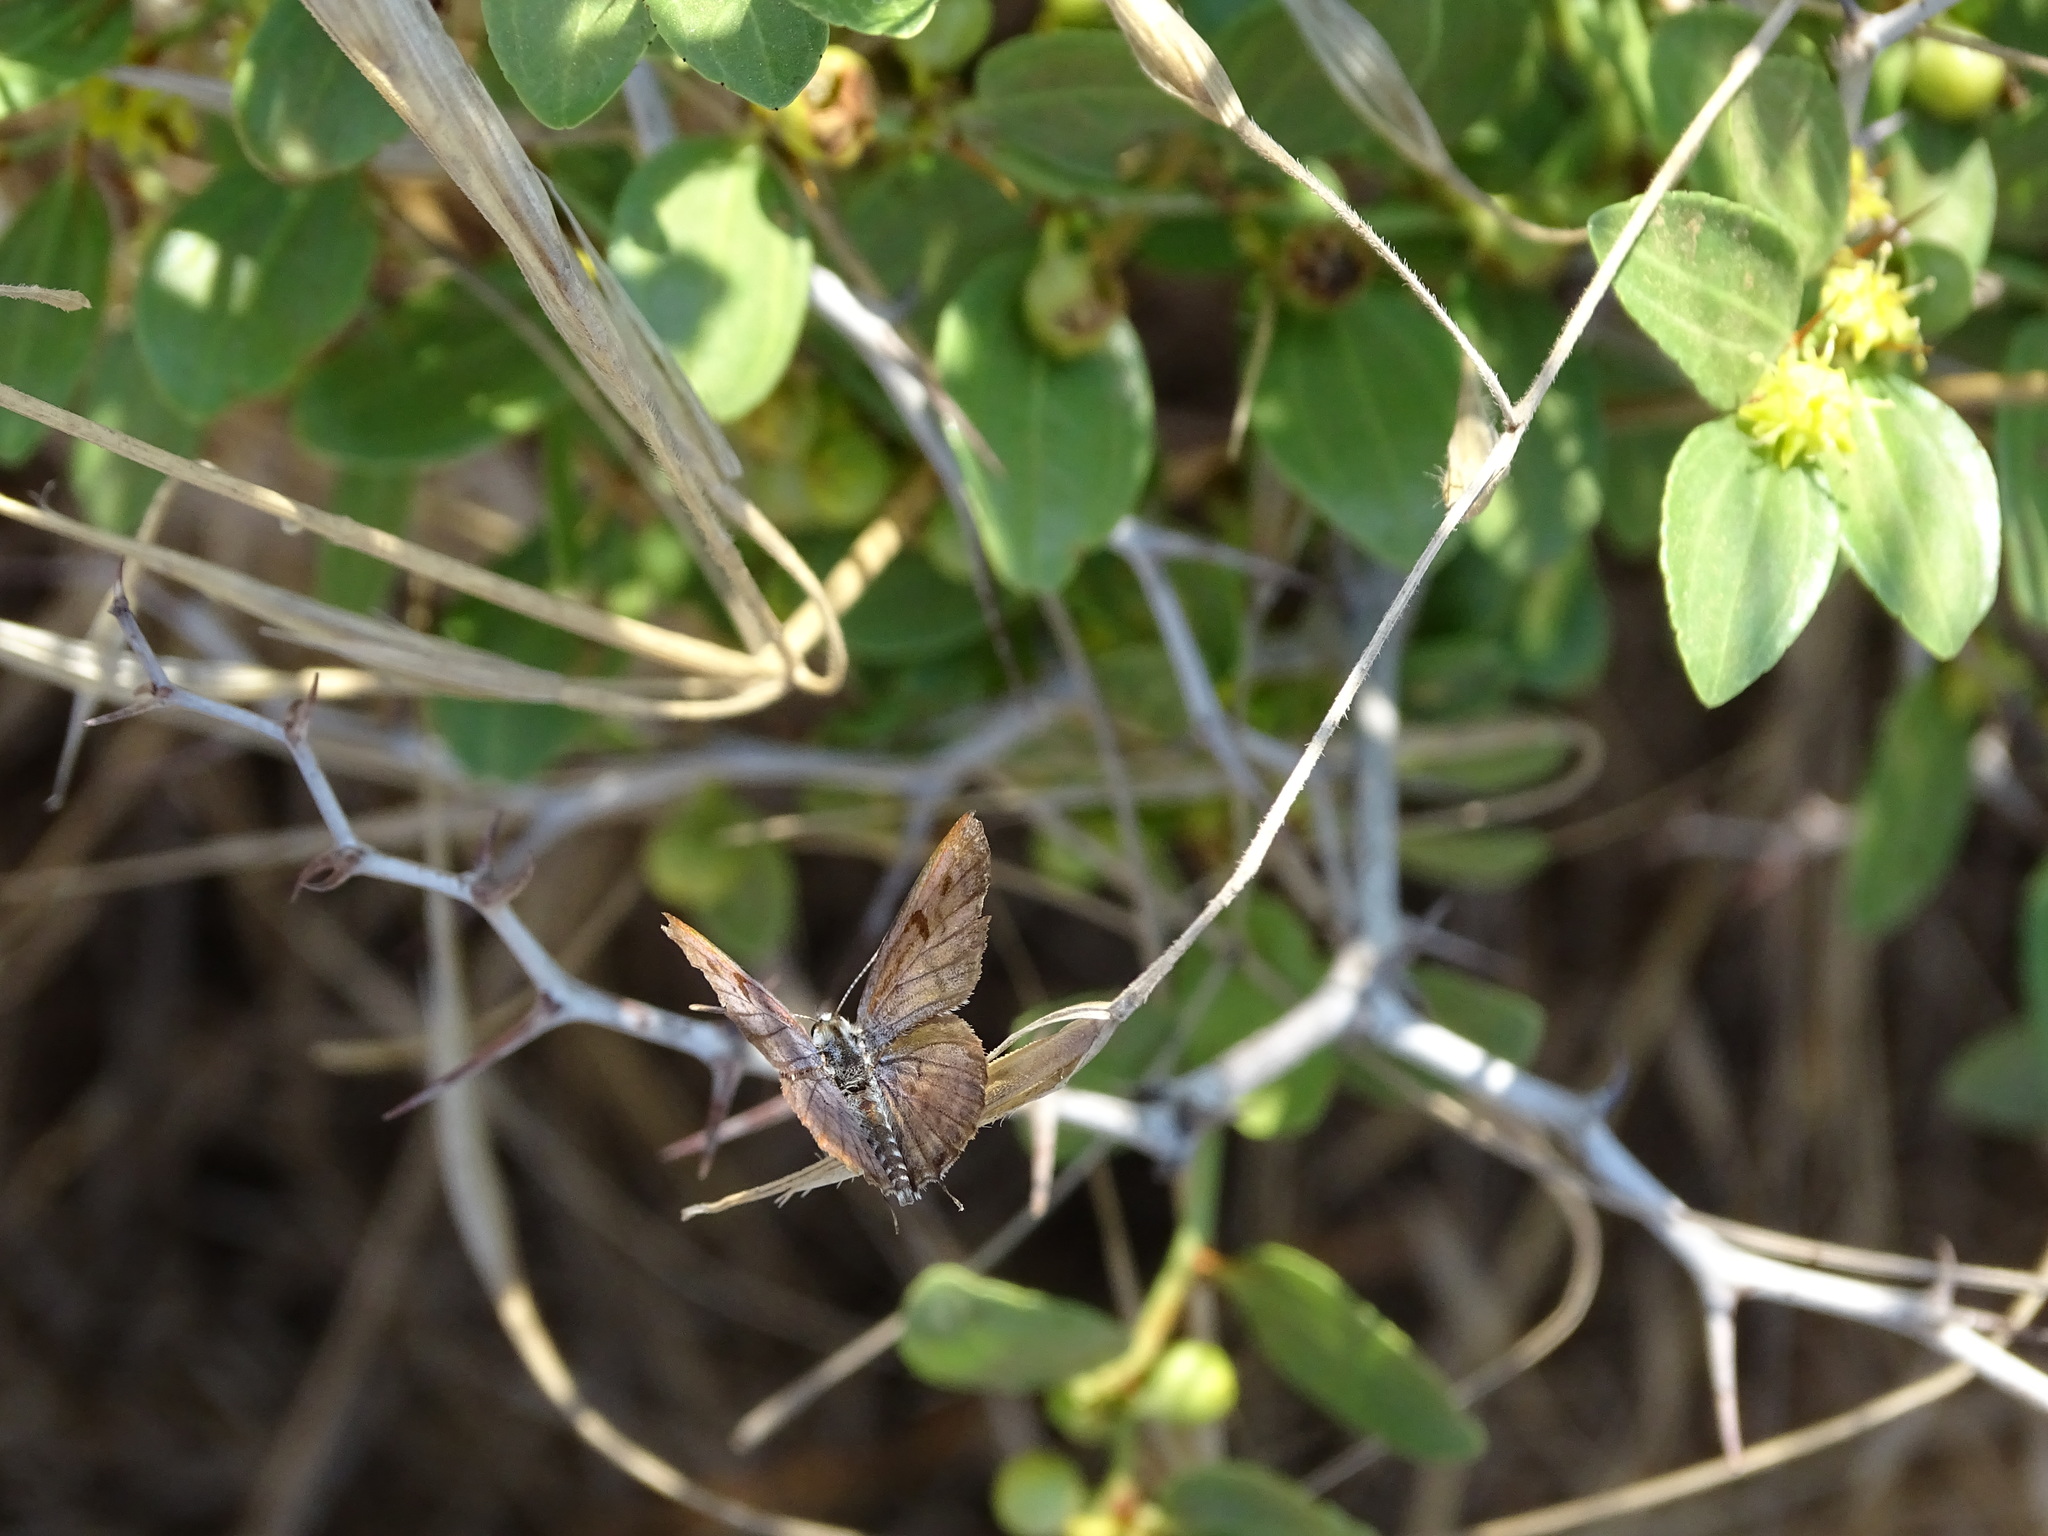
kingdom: Animalia
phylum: Arthropoda
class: Insecta
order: Lepidoptera
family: Lycaenidae
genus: Tarucus
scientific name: Tarucus balkanica
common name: Little tiger blue
